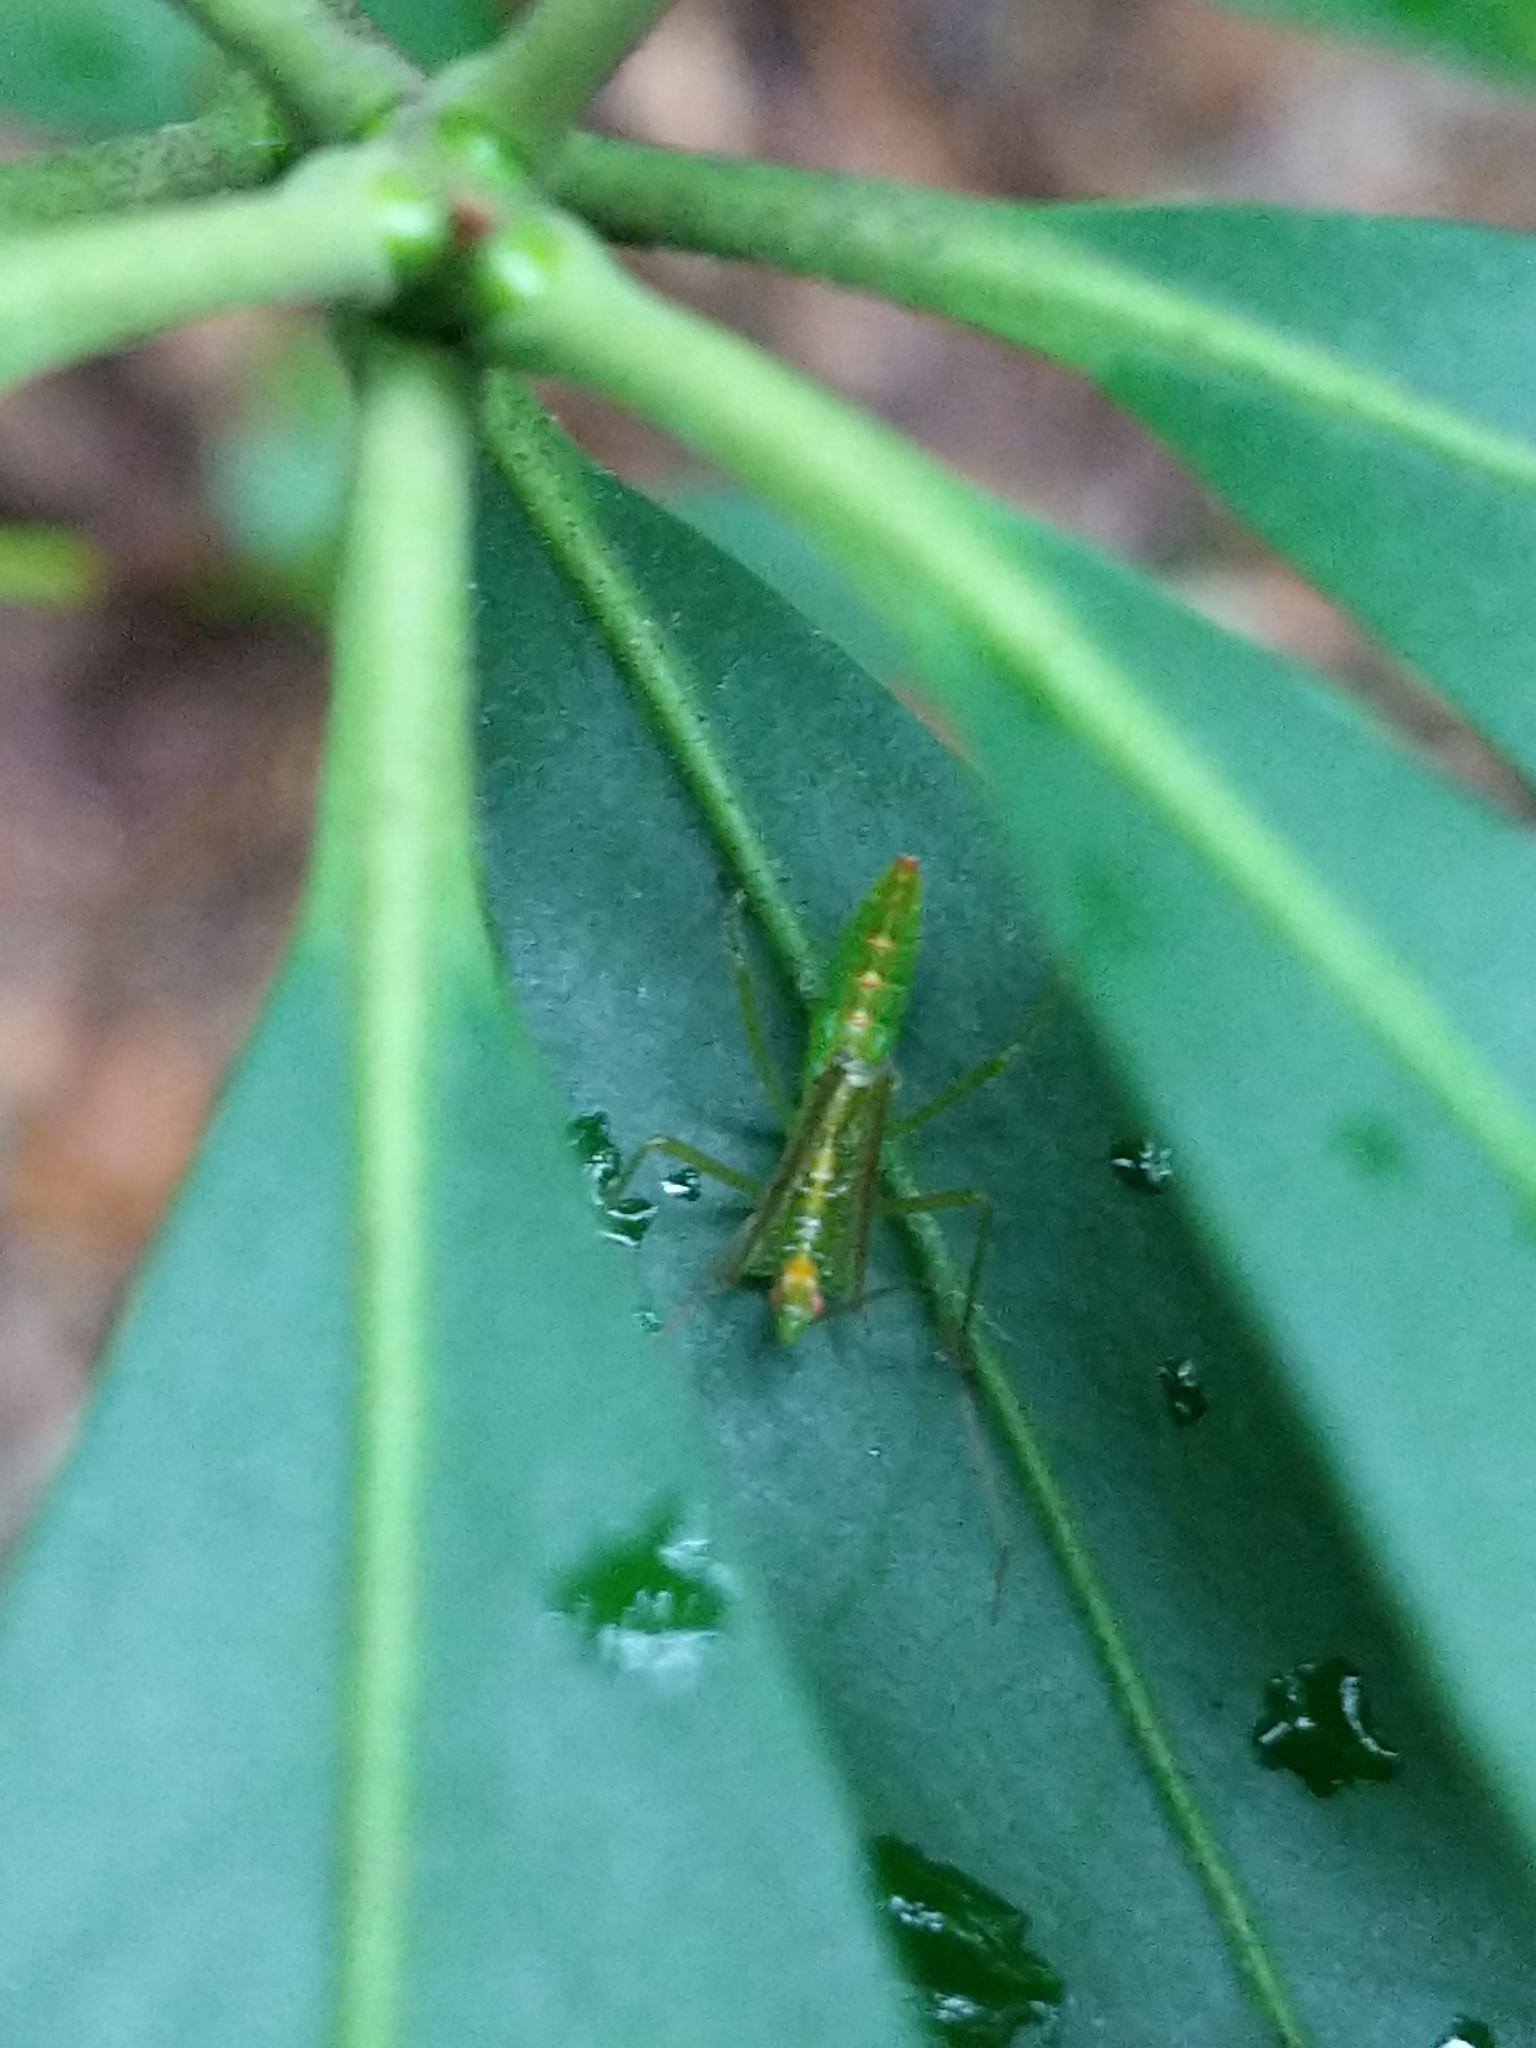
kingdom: Animalia
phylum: Arthropoda
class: Insecta
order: Hemiptera
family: Reduviidae
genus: Zelus
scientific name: Zelus luridus
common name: Pale green assassin bug
